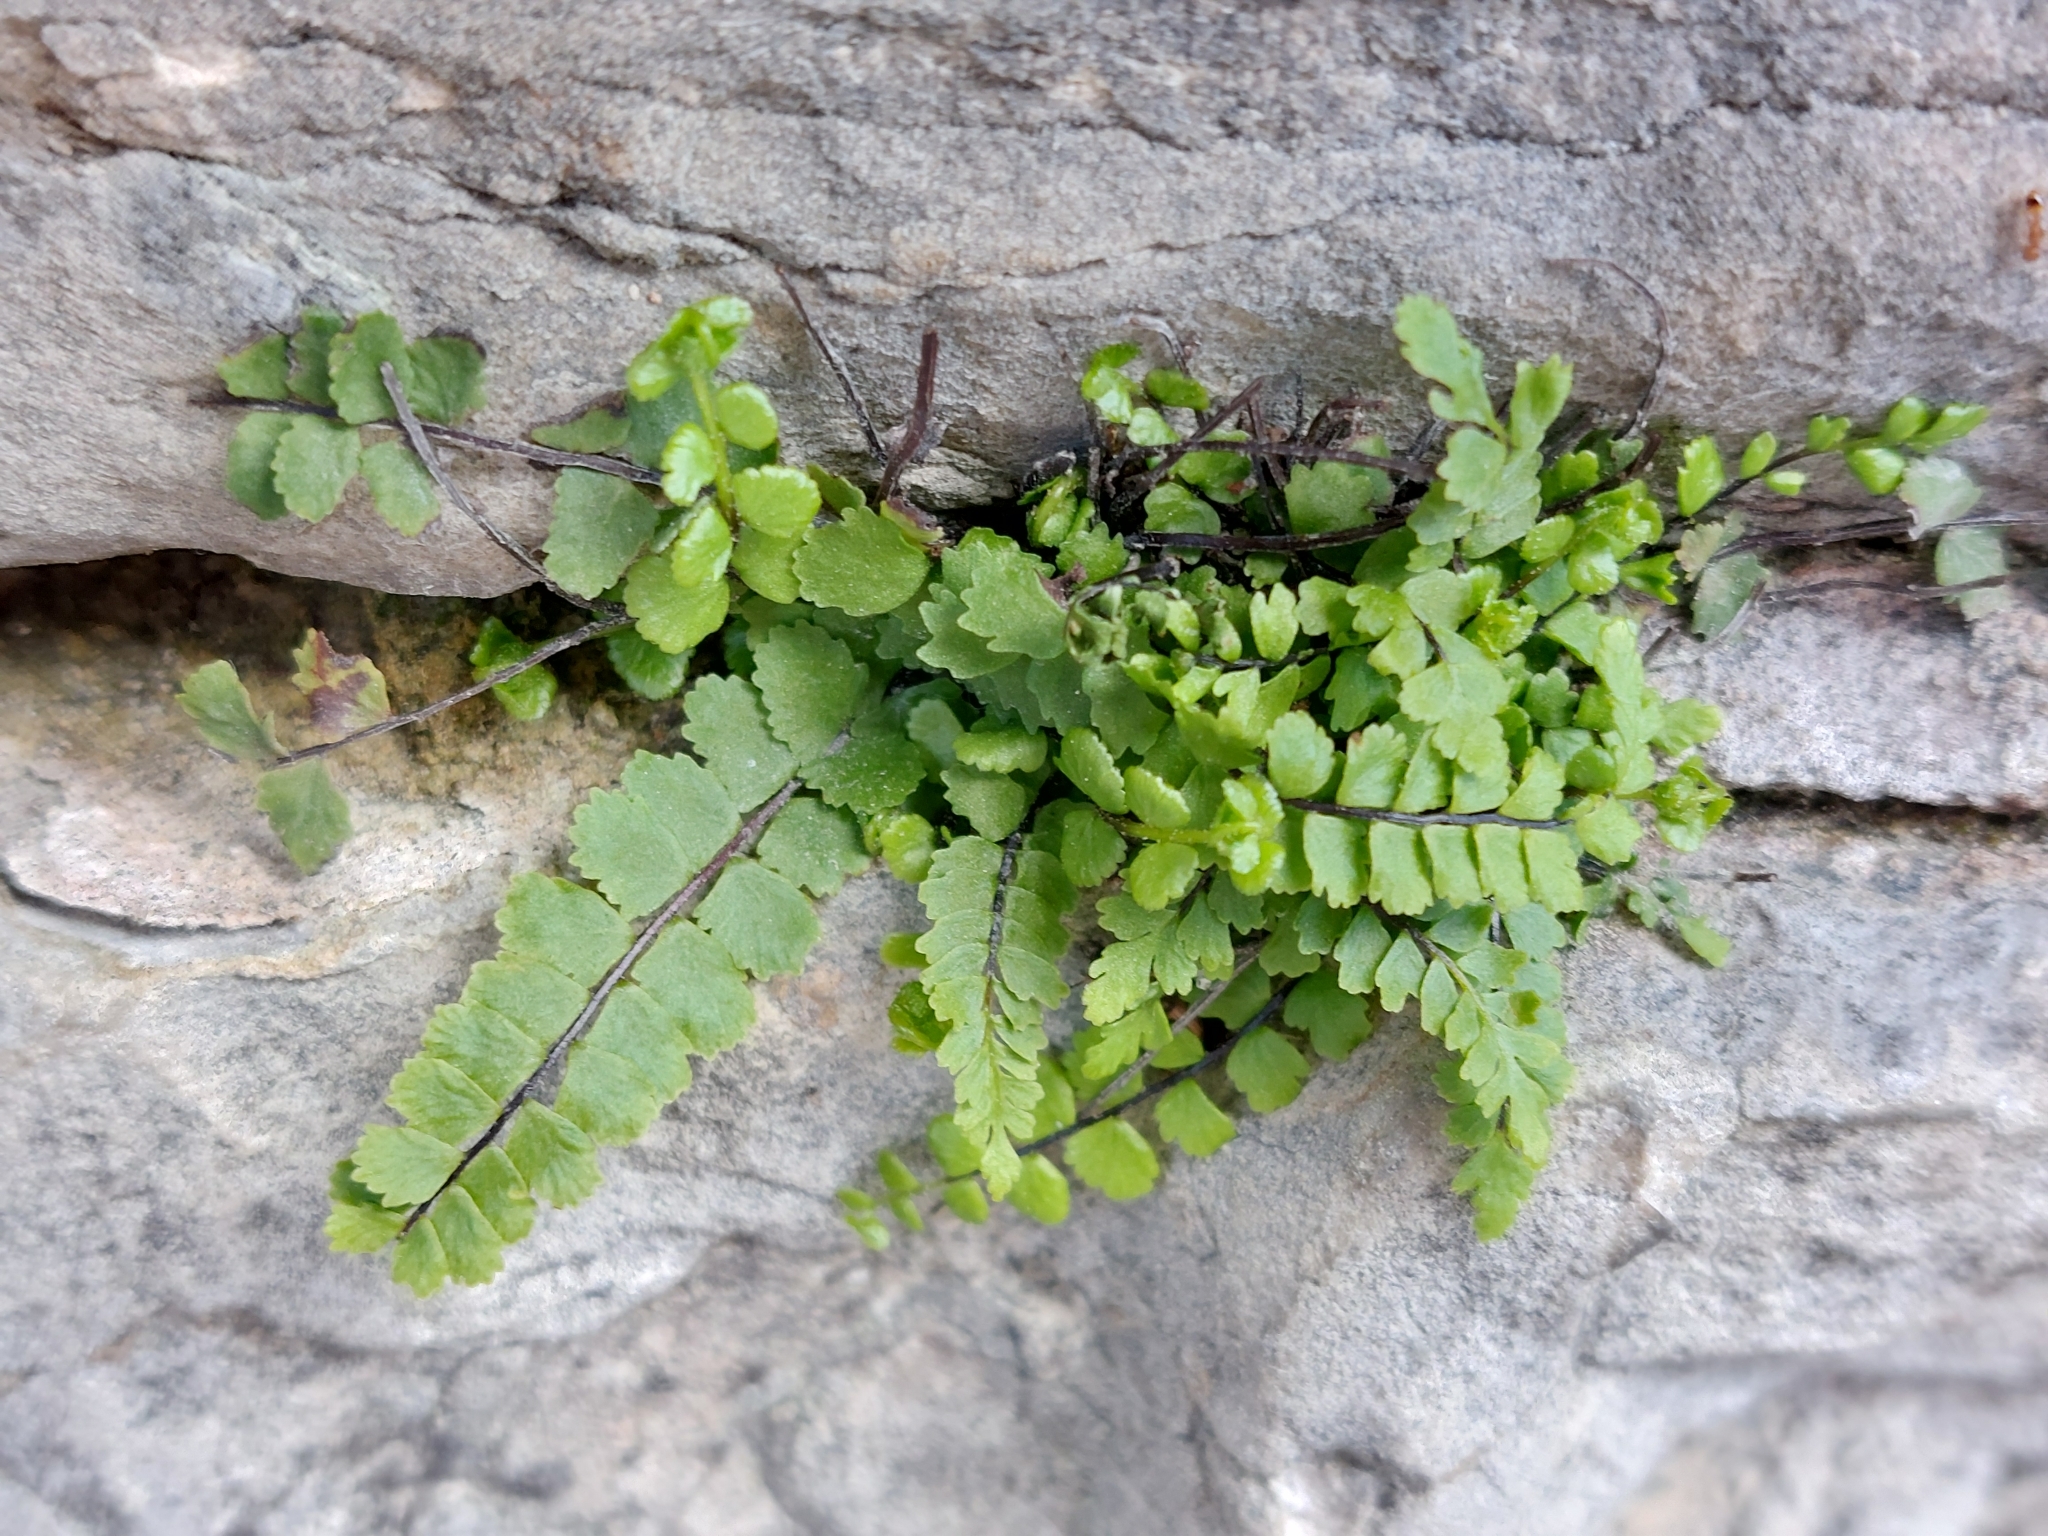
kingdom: Plantae
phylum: Tracheophyta
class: Polypodiopsida
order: Polypodiales
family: Aspleniaceae
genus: Asplenium
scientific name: Asplenium trichomanes
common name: Maidenhair spleenwort
